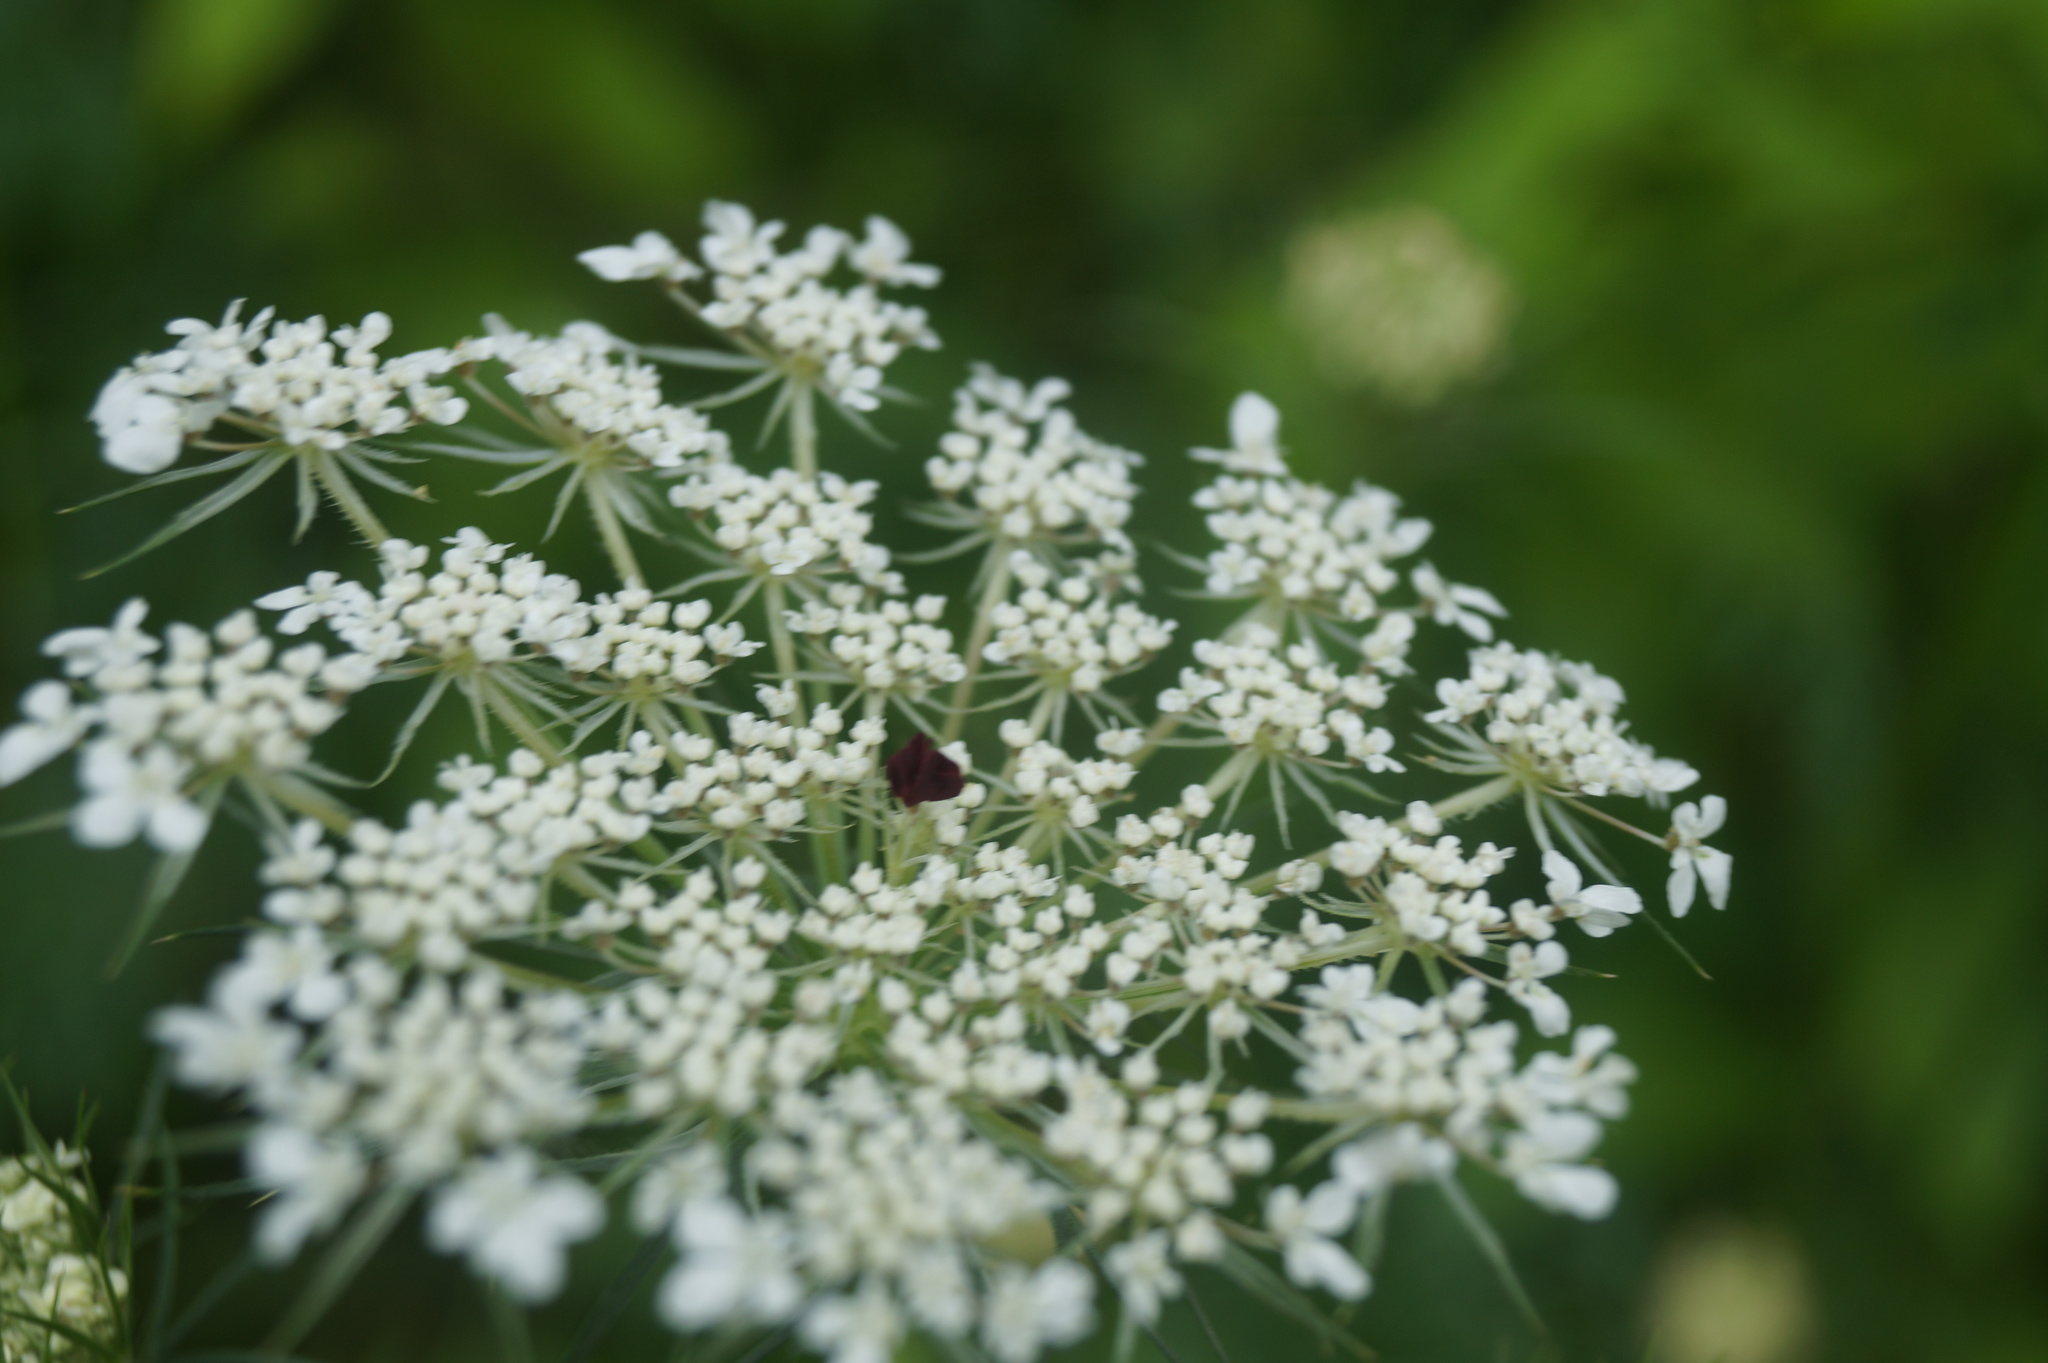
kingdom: Plantae
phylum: Tracheophyta
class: Magnoliopsida
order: Apiales
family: Apiaceae
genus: Daucus
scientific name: Daucus carota
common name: Wild carrot
